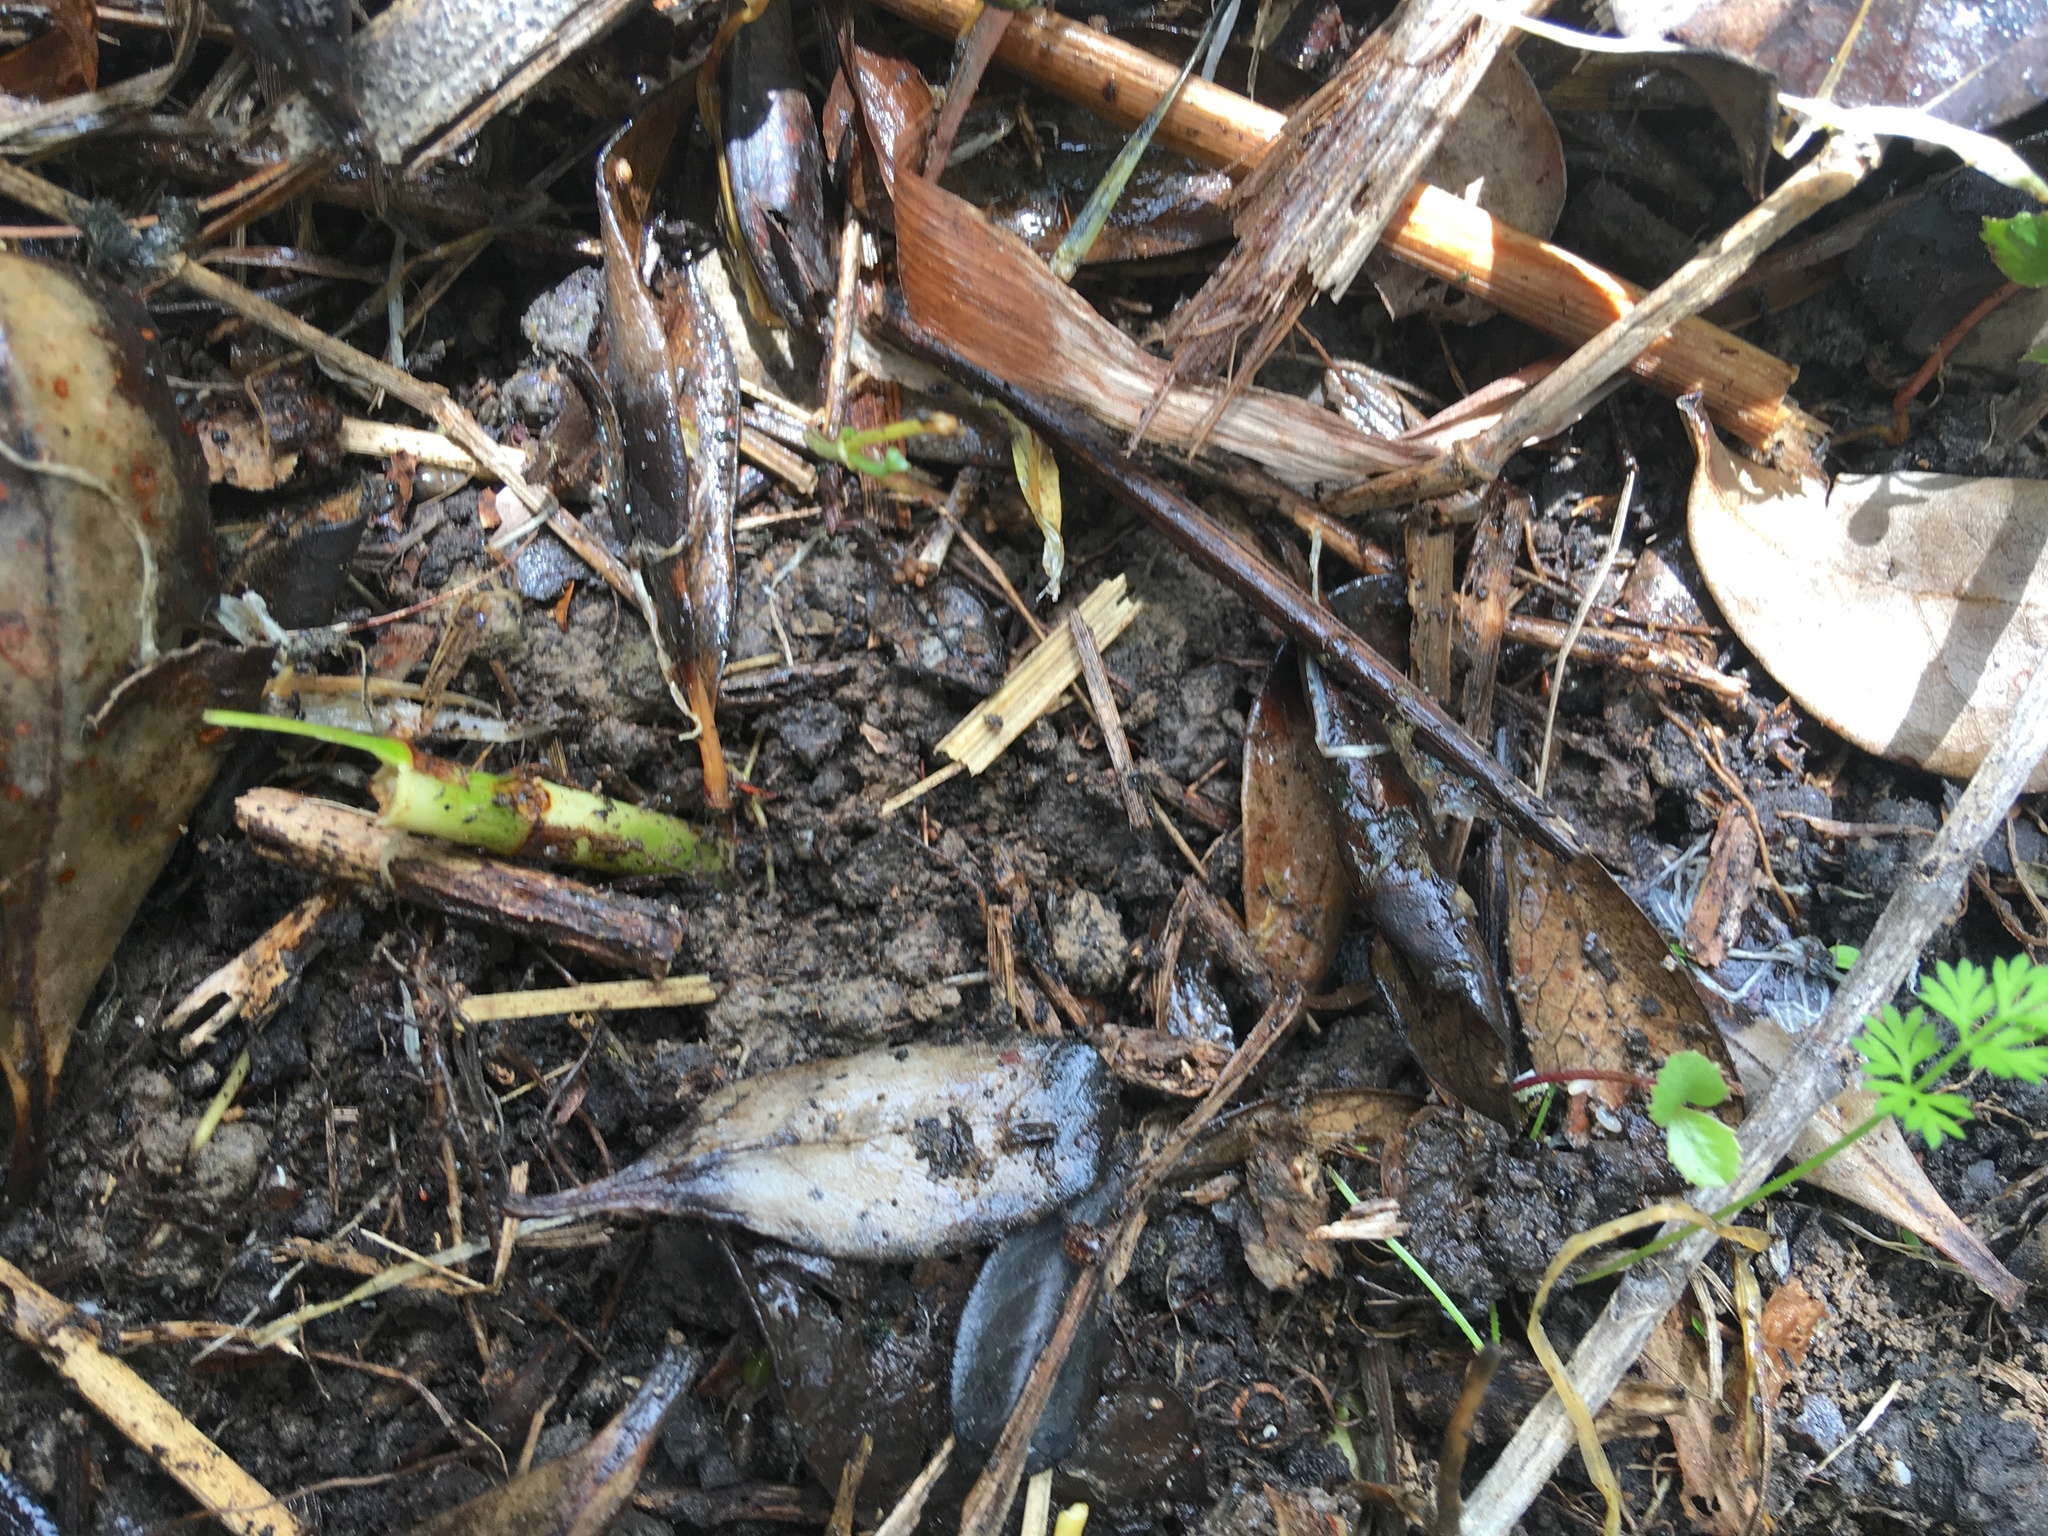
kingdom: Plantae
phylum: Tracheophyta
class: Magnoliopsida
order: Ericales
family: Primulaceae
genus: Myrsine
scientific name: Myrsine australis
